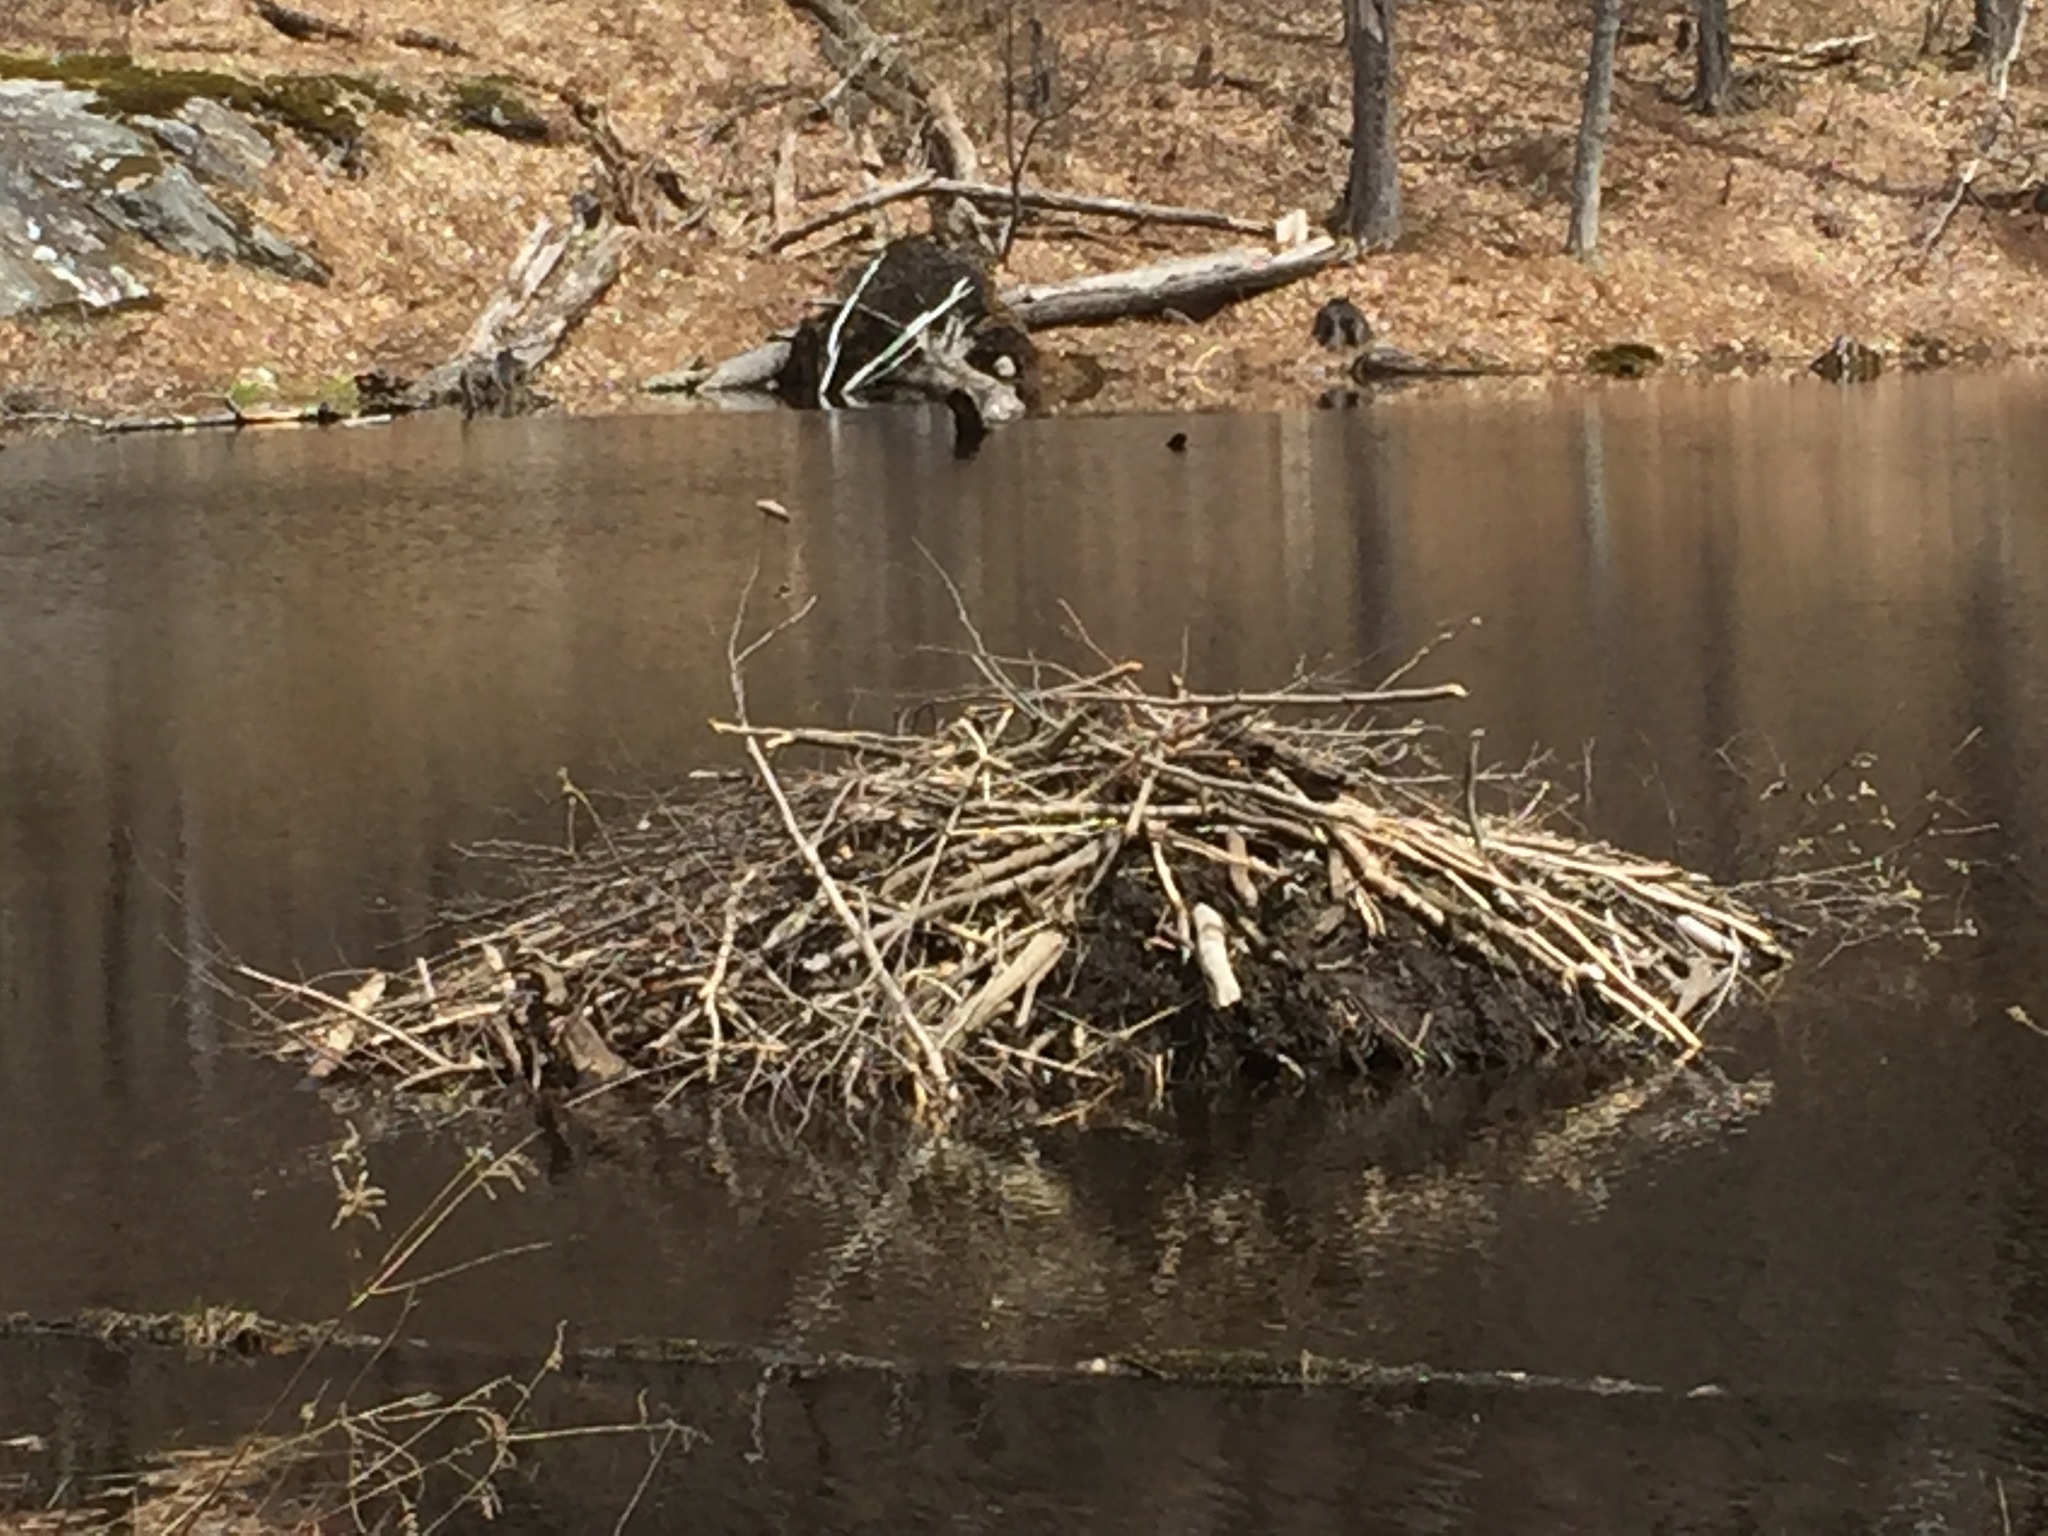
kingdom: Animalia
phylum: Chordata
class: Mammalia
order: Rodentia
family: Castoridae
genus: Castor
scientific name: Castor canadensis
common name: American beaver
